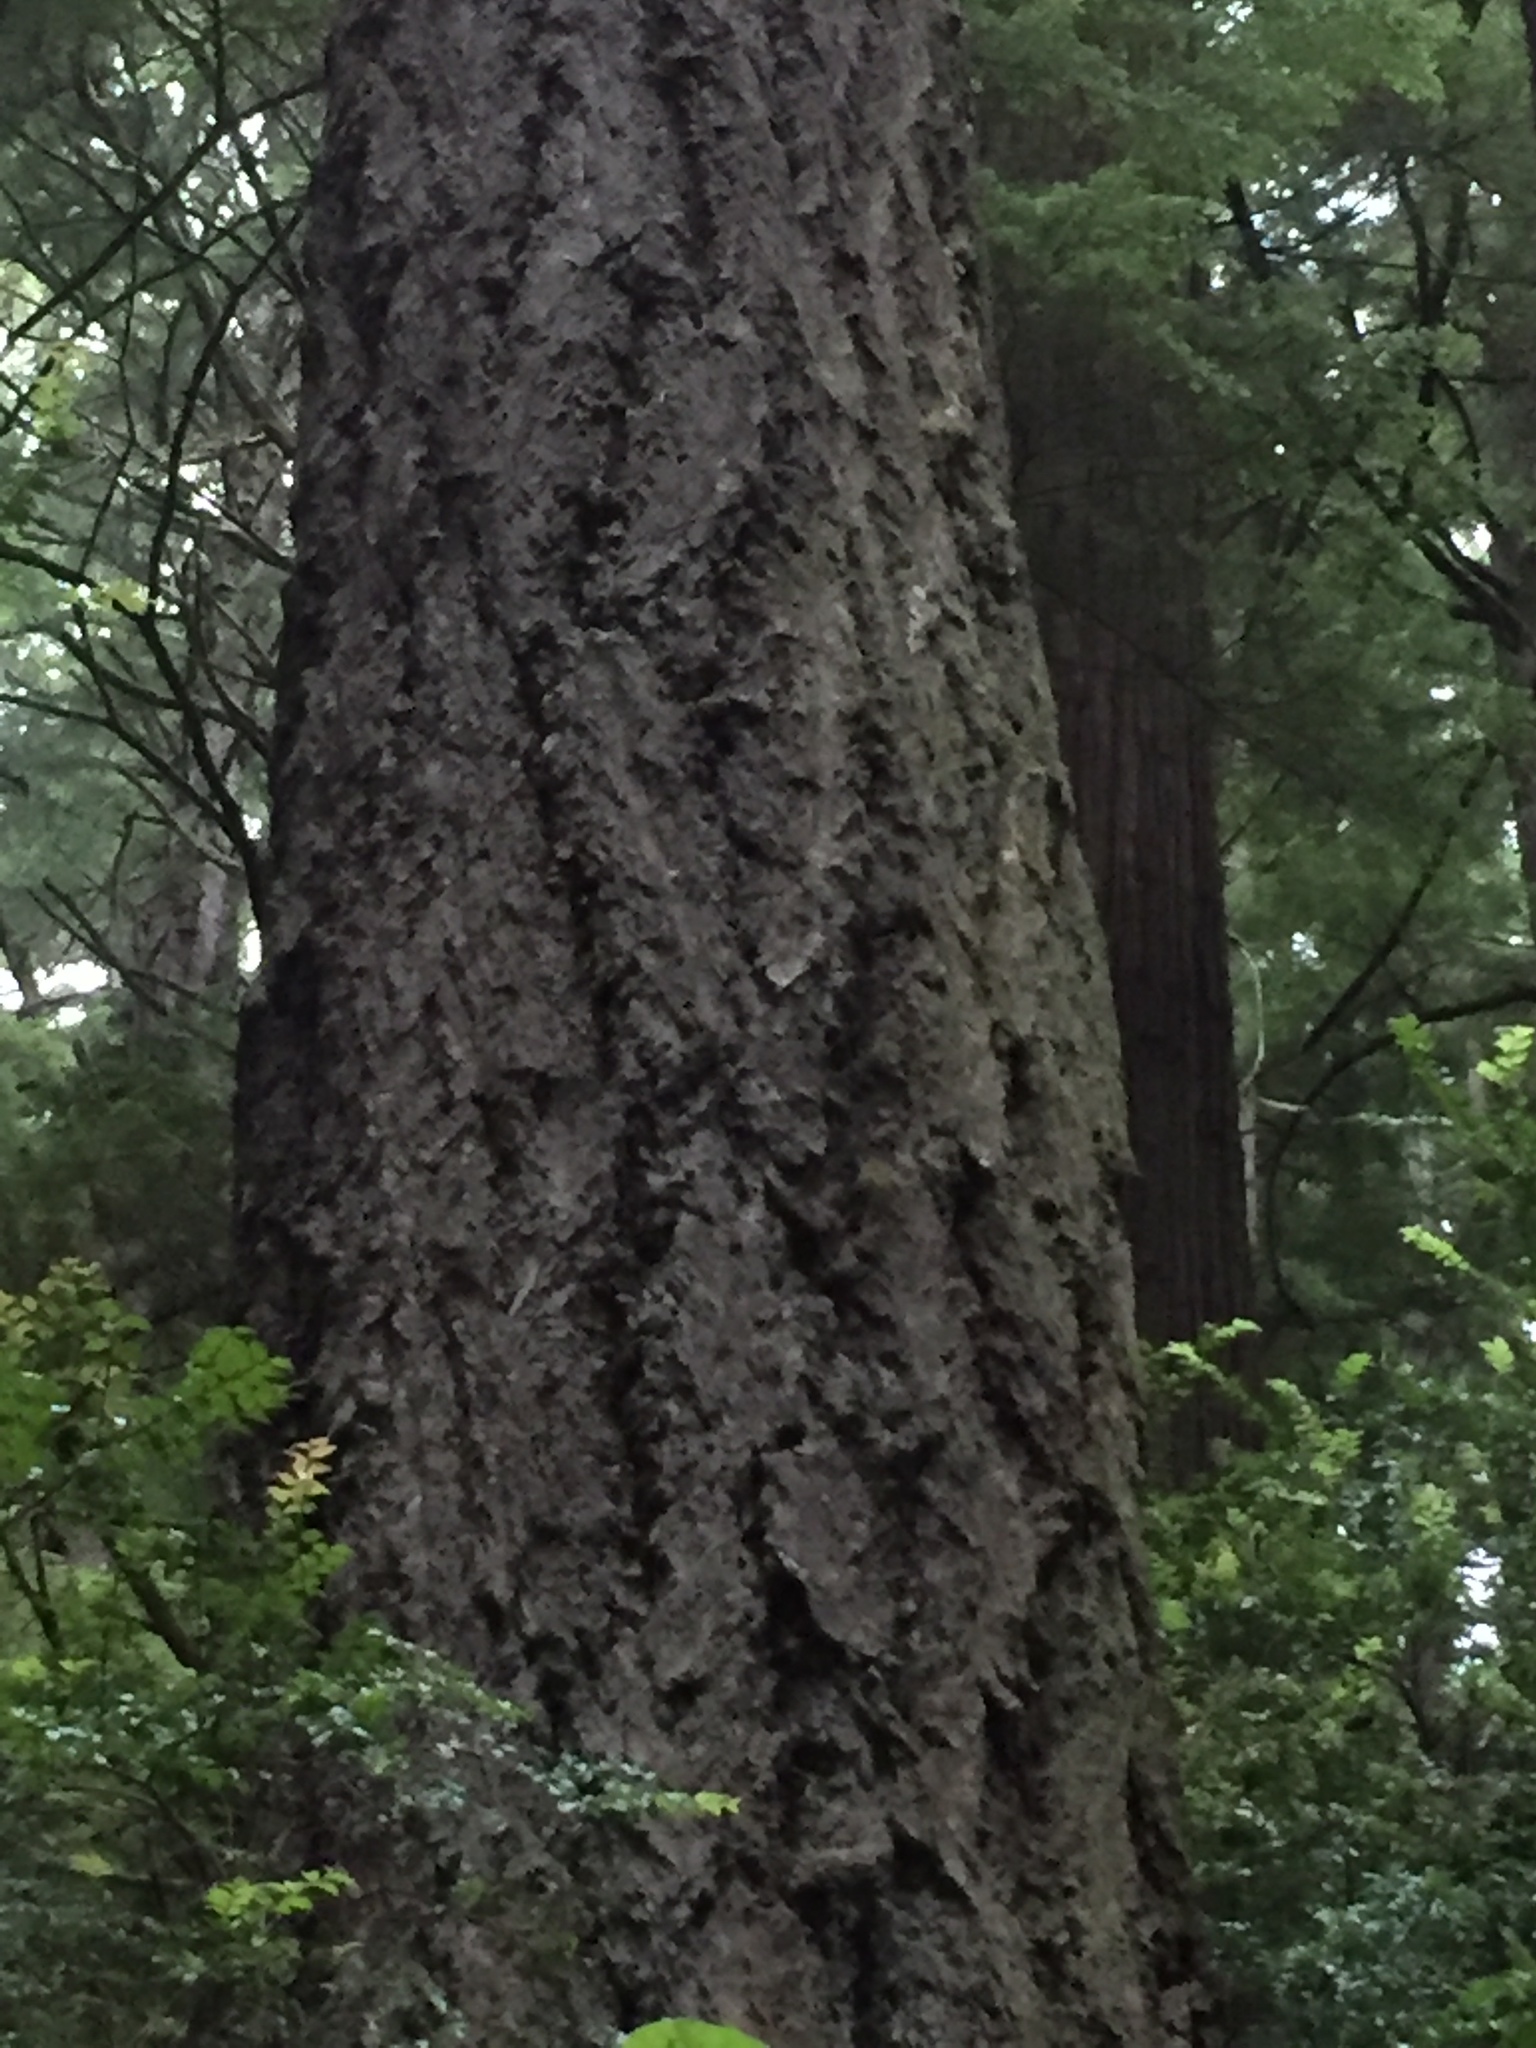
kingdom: Plantae
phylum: Tracheophyta
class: Pinopsida
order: Pinales
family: Pinaceae
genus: Pseudotsuga
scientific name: Pseudotsuga menziesii
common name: Douglas fir
